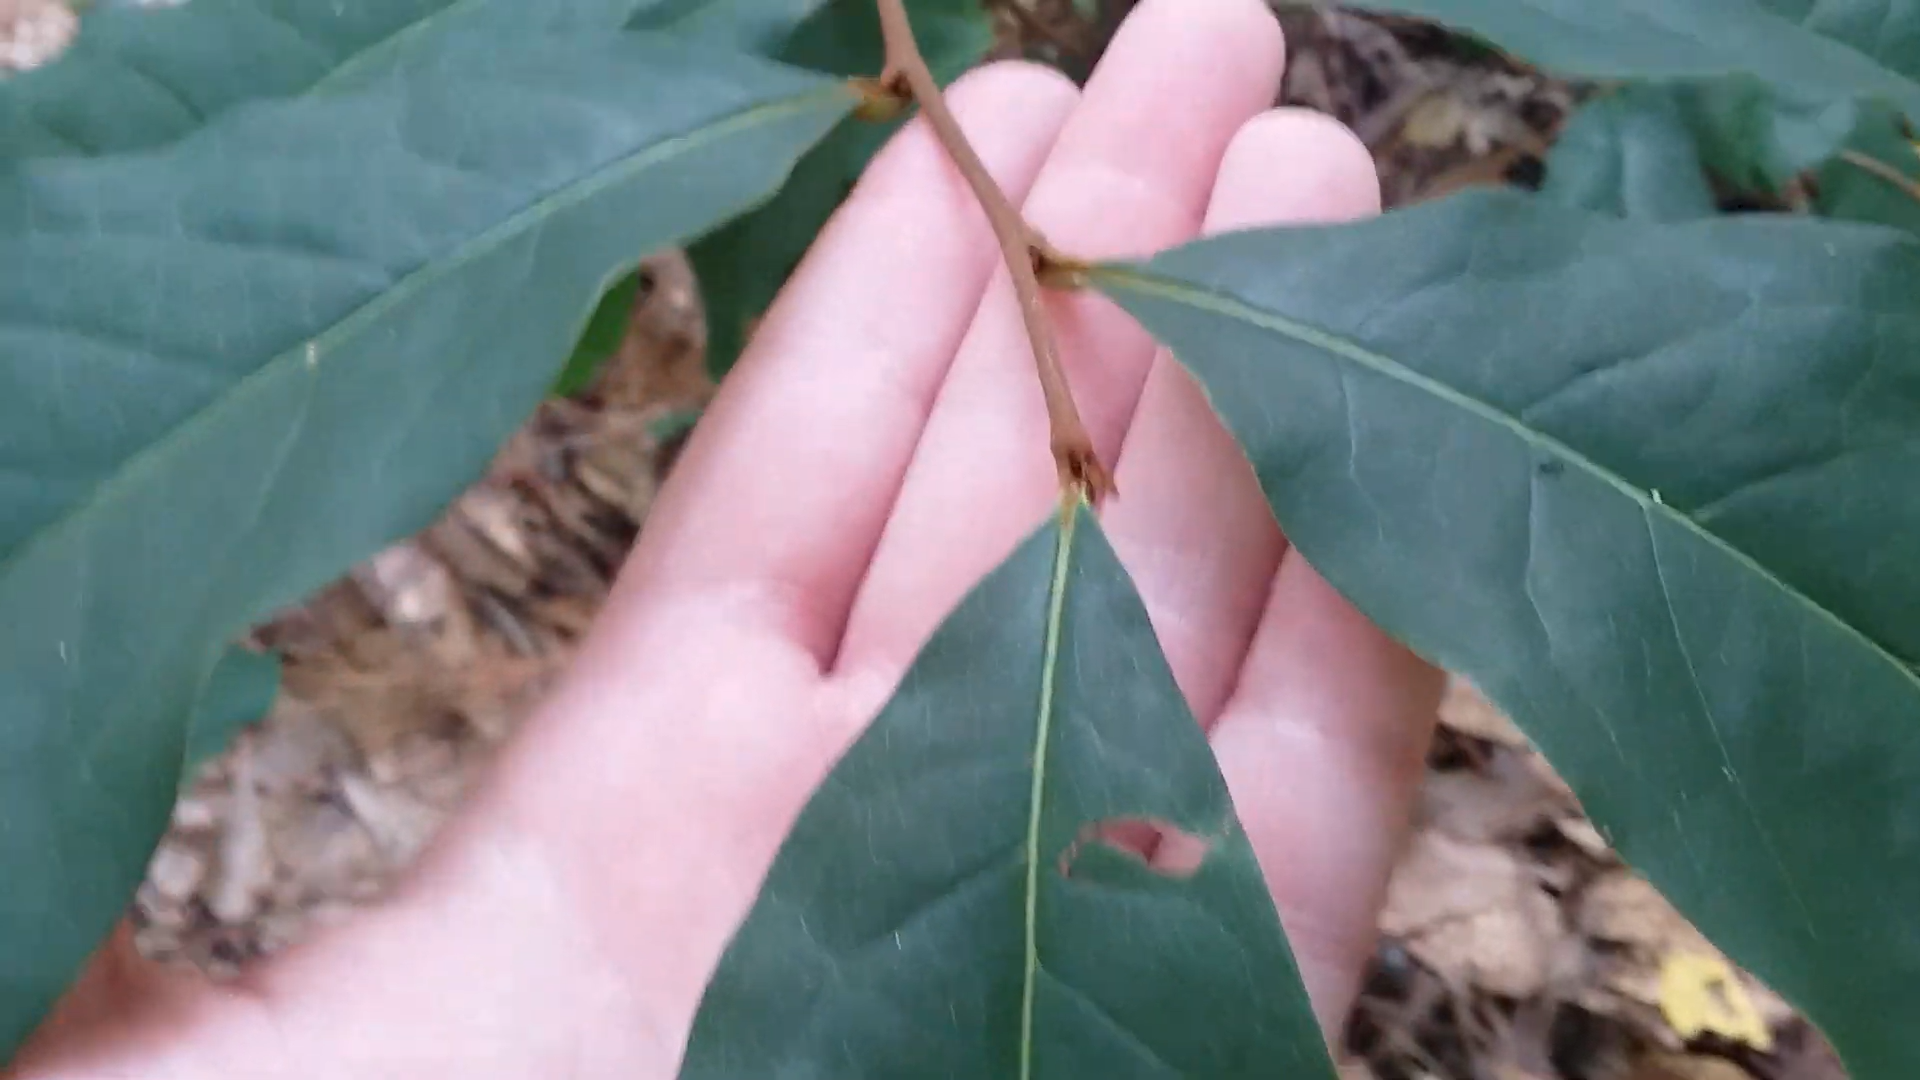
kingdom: Plantae
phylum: Tracheophyta
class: Magnoliopsida
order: Magnoliales
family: Annonaceae
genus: Asimina
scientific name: Asimina parviflora
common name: Dwarf pawpaw
